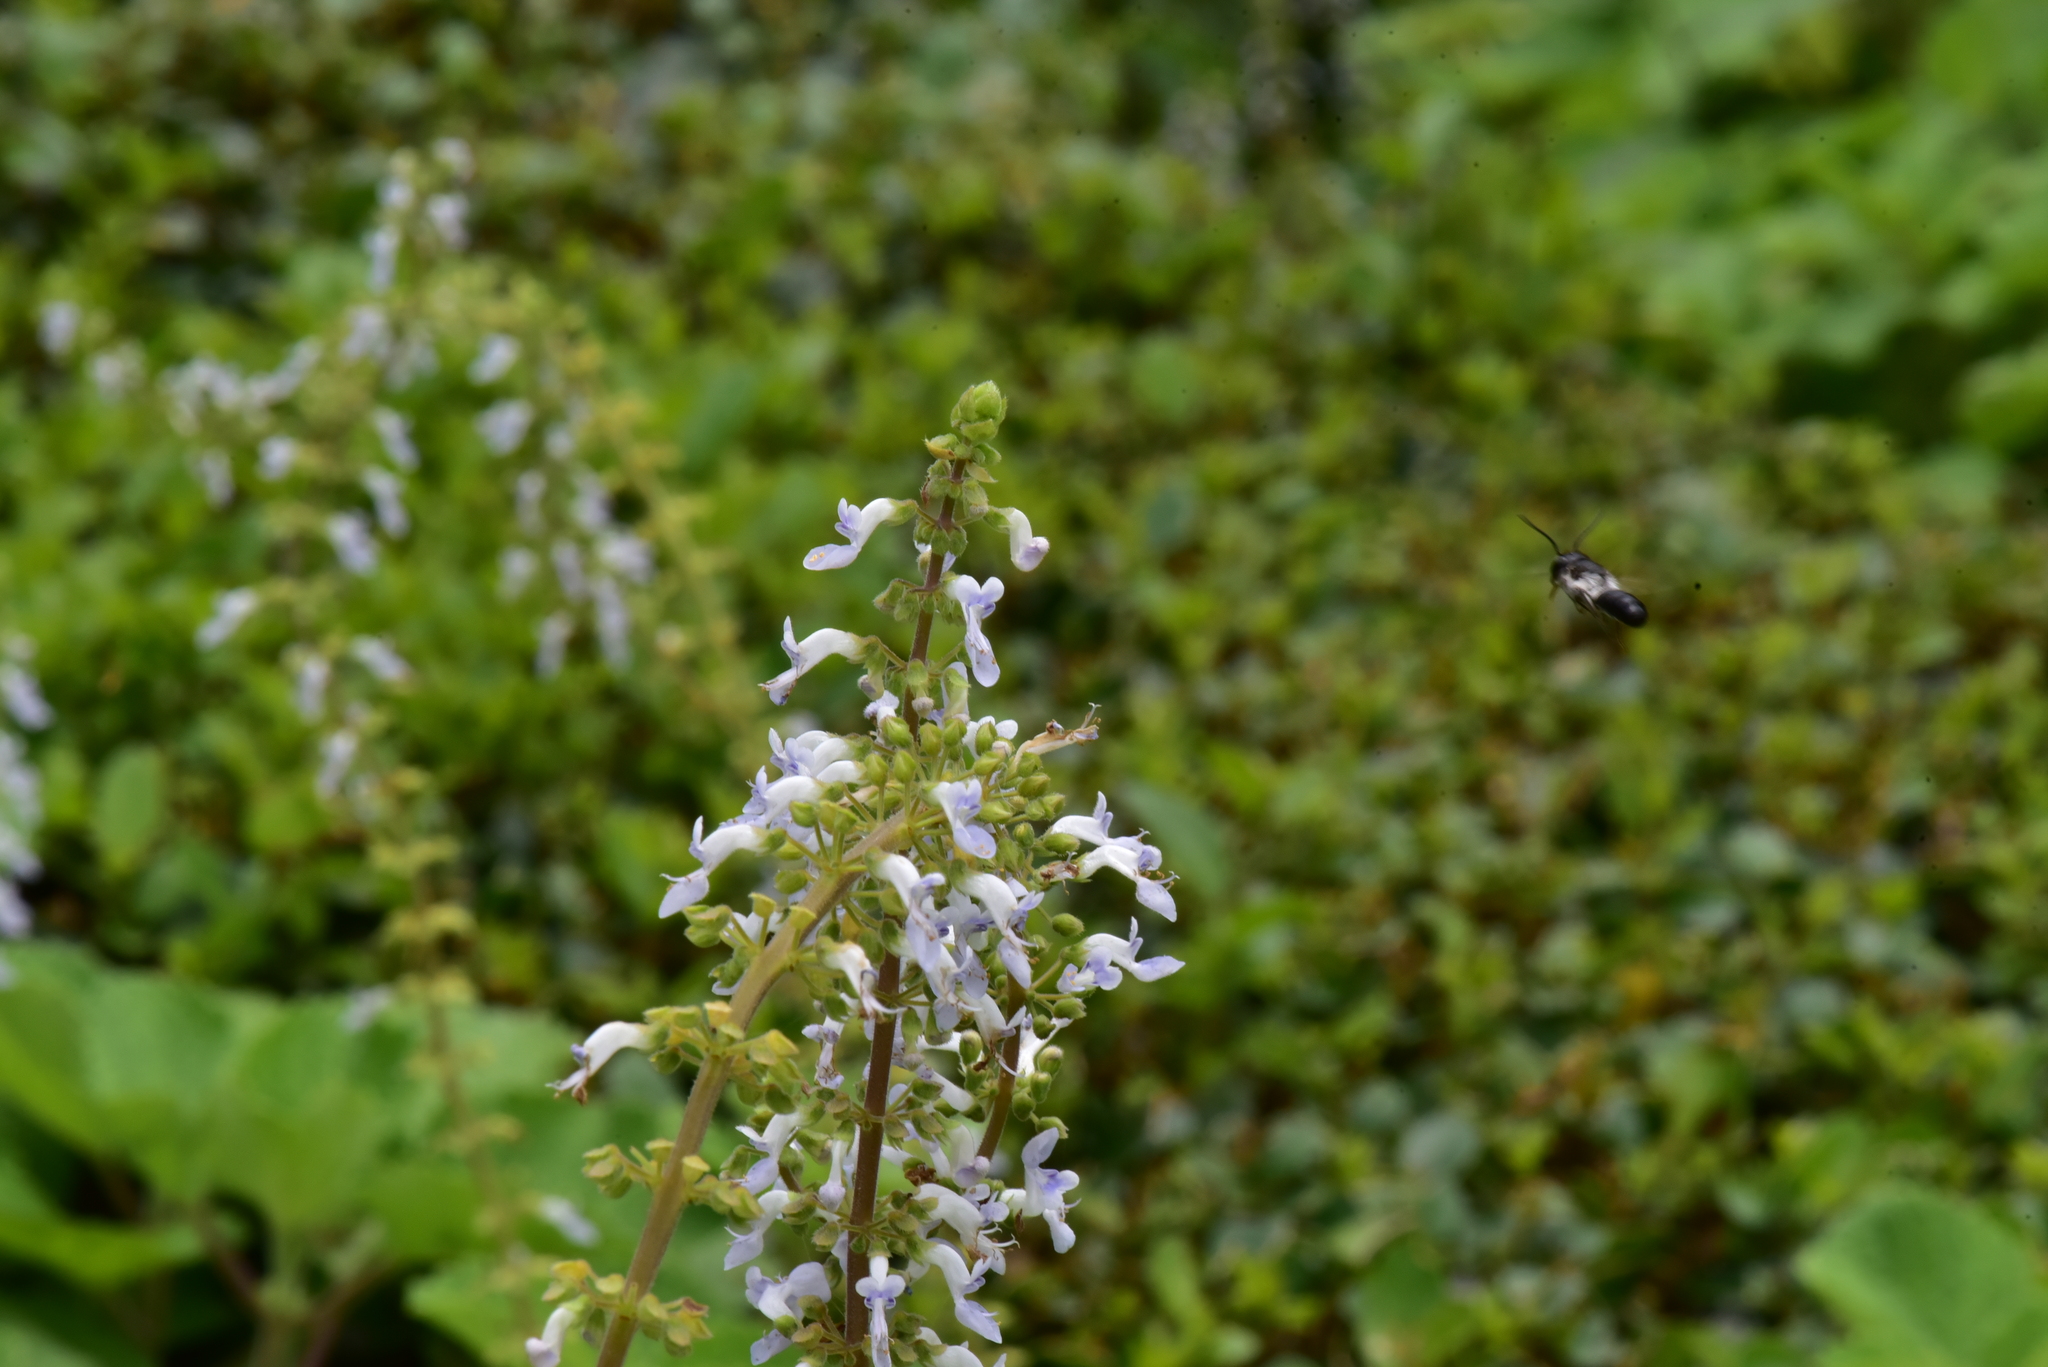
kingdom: Animalia
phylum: Arthropoda
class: Insecta
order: Hymenoptera
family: Megachilidae
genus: Megachile
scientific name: Megachile disjunctiformis
